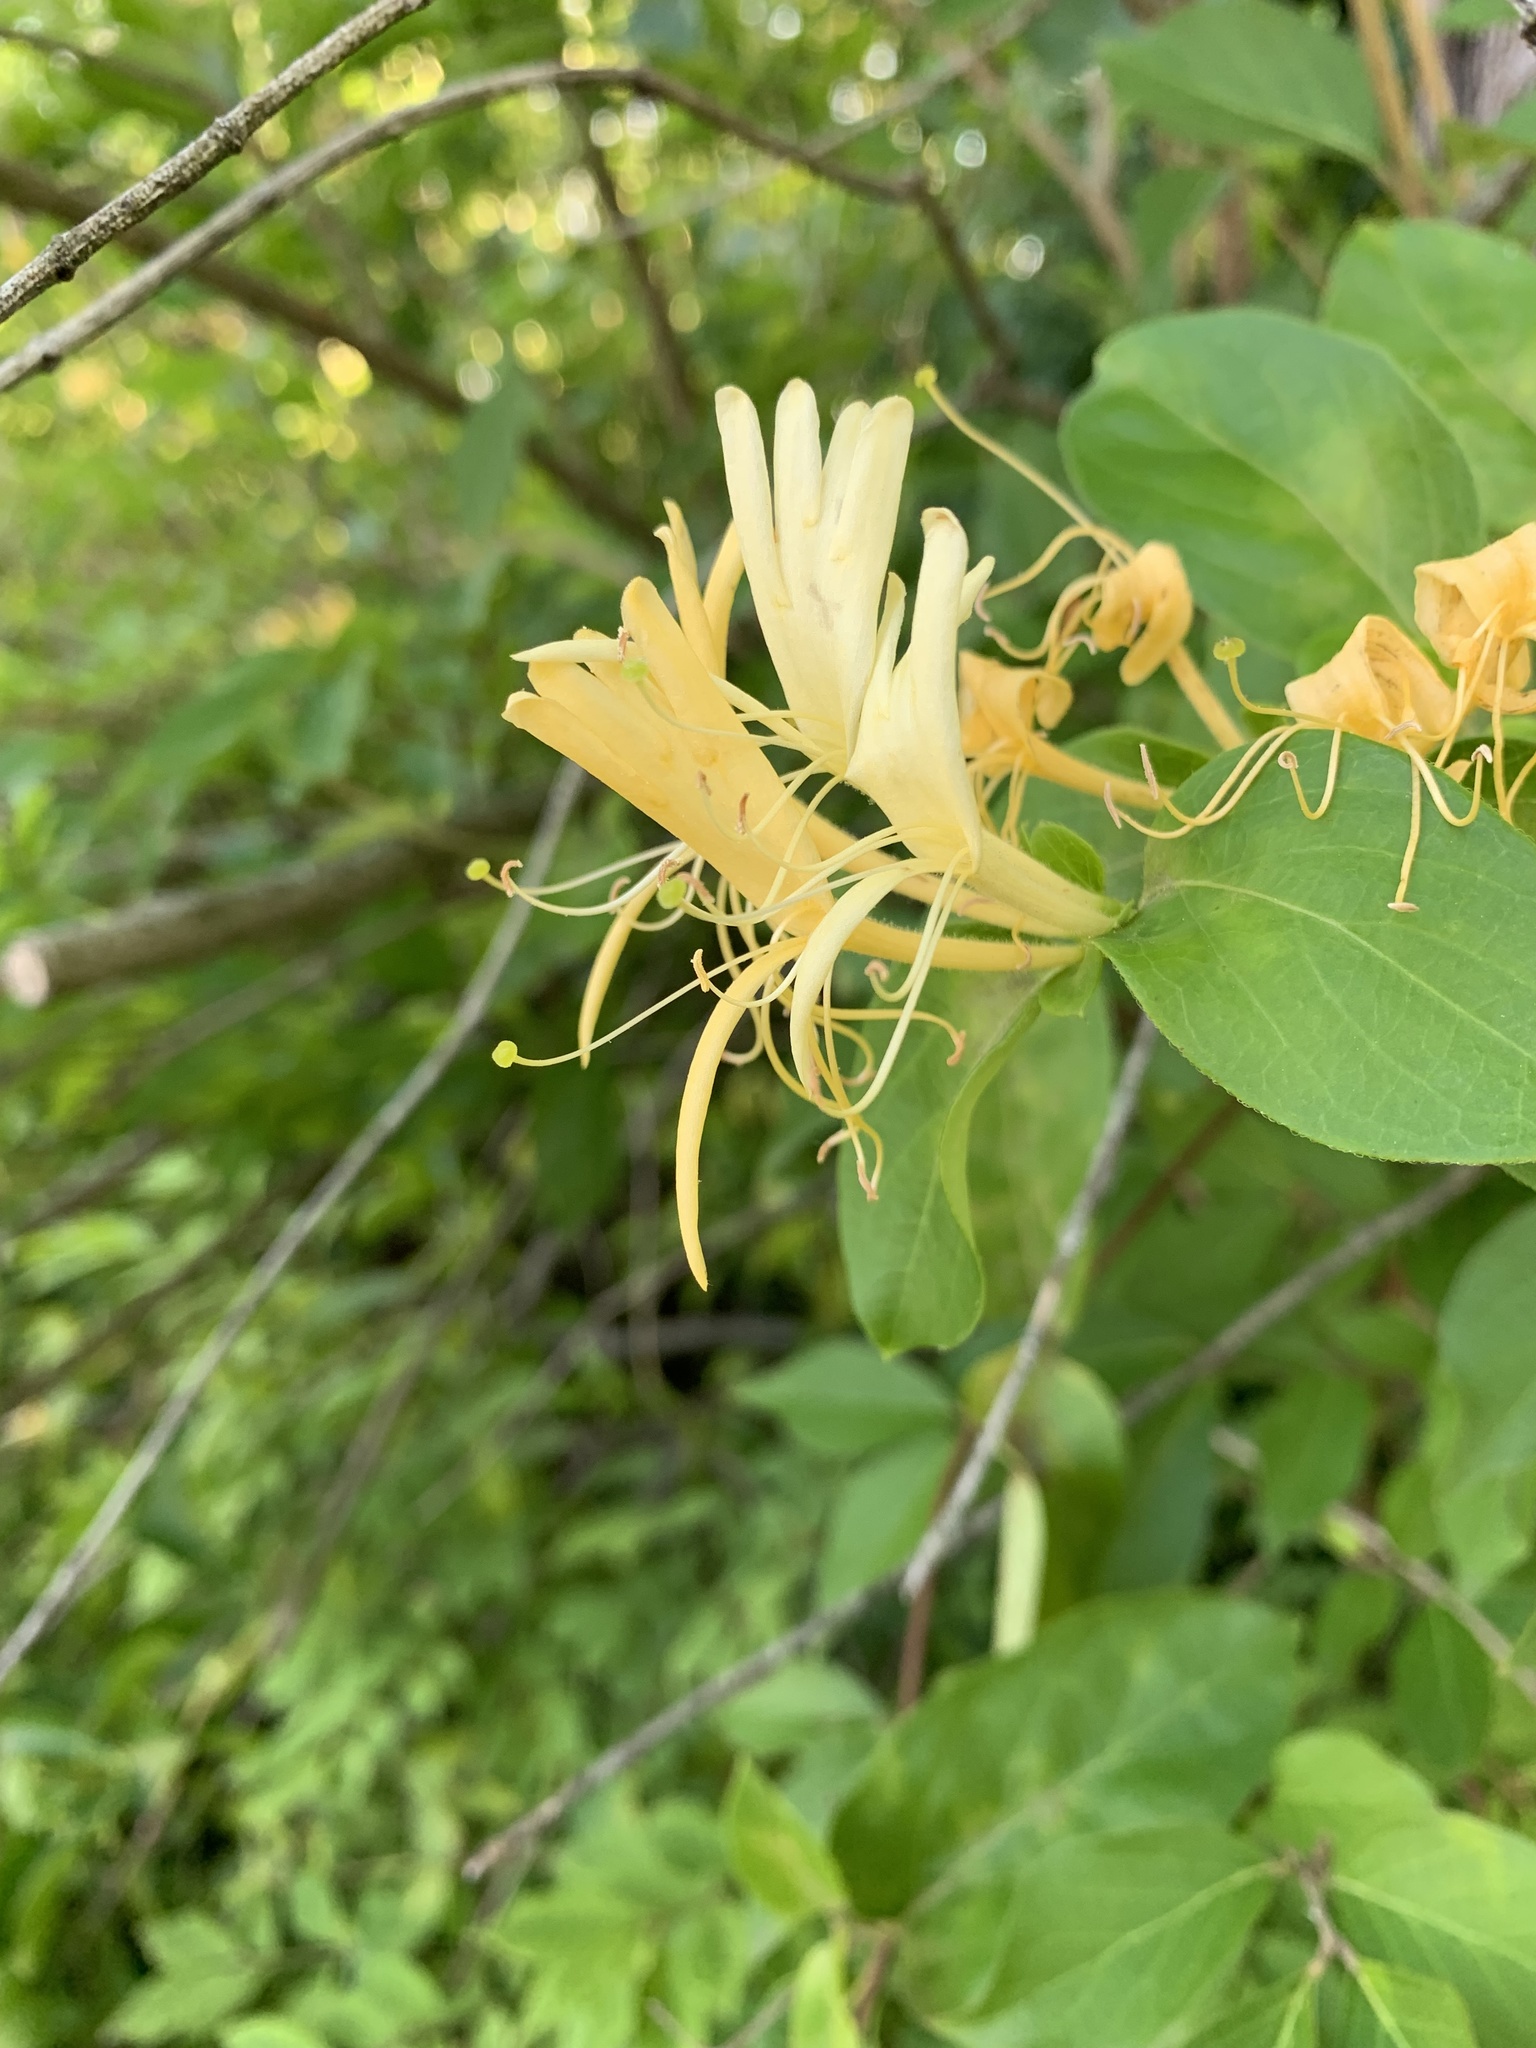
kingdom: Plantae
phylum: Tracheophyta
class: Magnoliopsida
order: Dipsacales
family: Caprifoliaceae
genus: Lonicera
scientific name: Lonicera japonica
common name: Japanese honeysuckle
